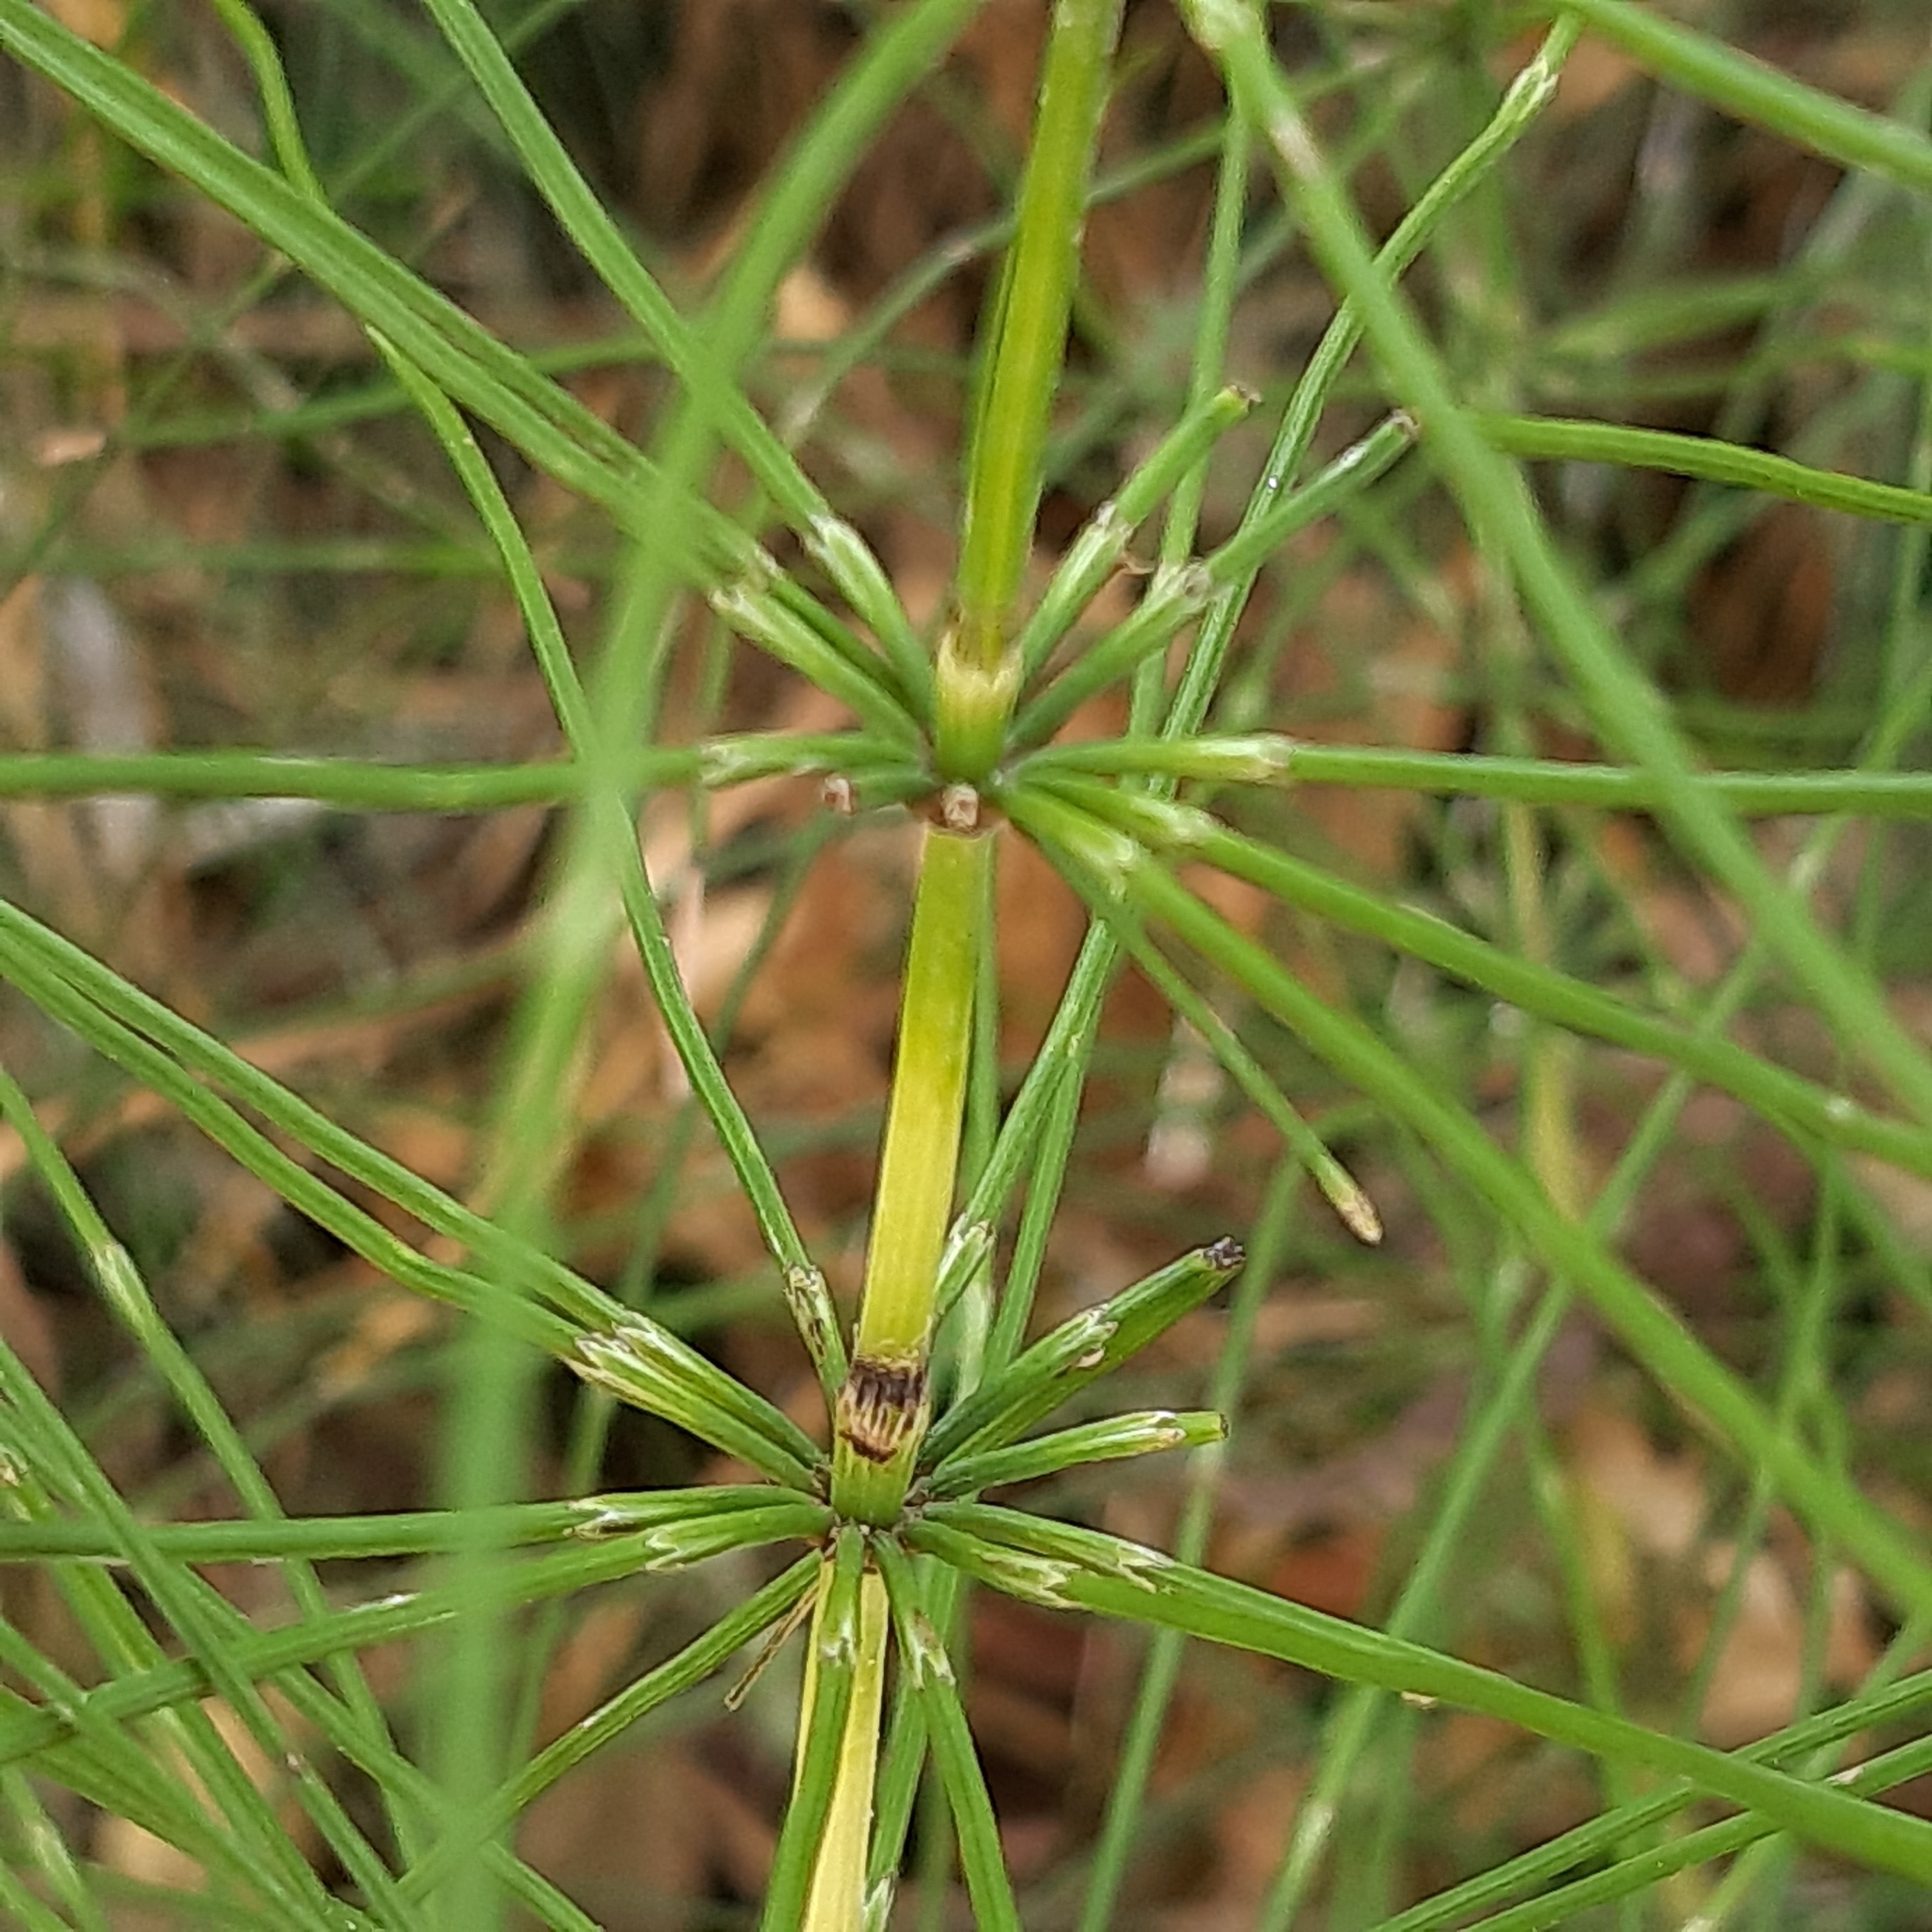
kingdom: Plantae
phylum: Tracheophyta
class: Polypodiopsida
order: Equisetales
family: Equisetaceae
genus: Equisetum
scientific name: Equisetum telmateia
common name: Great horsetail
